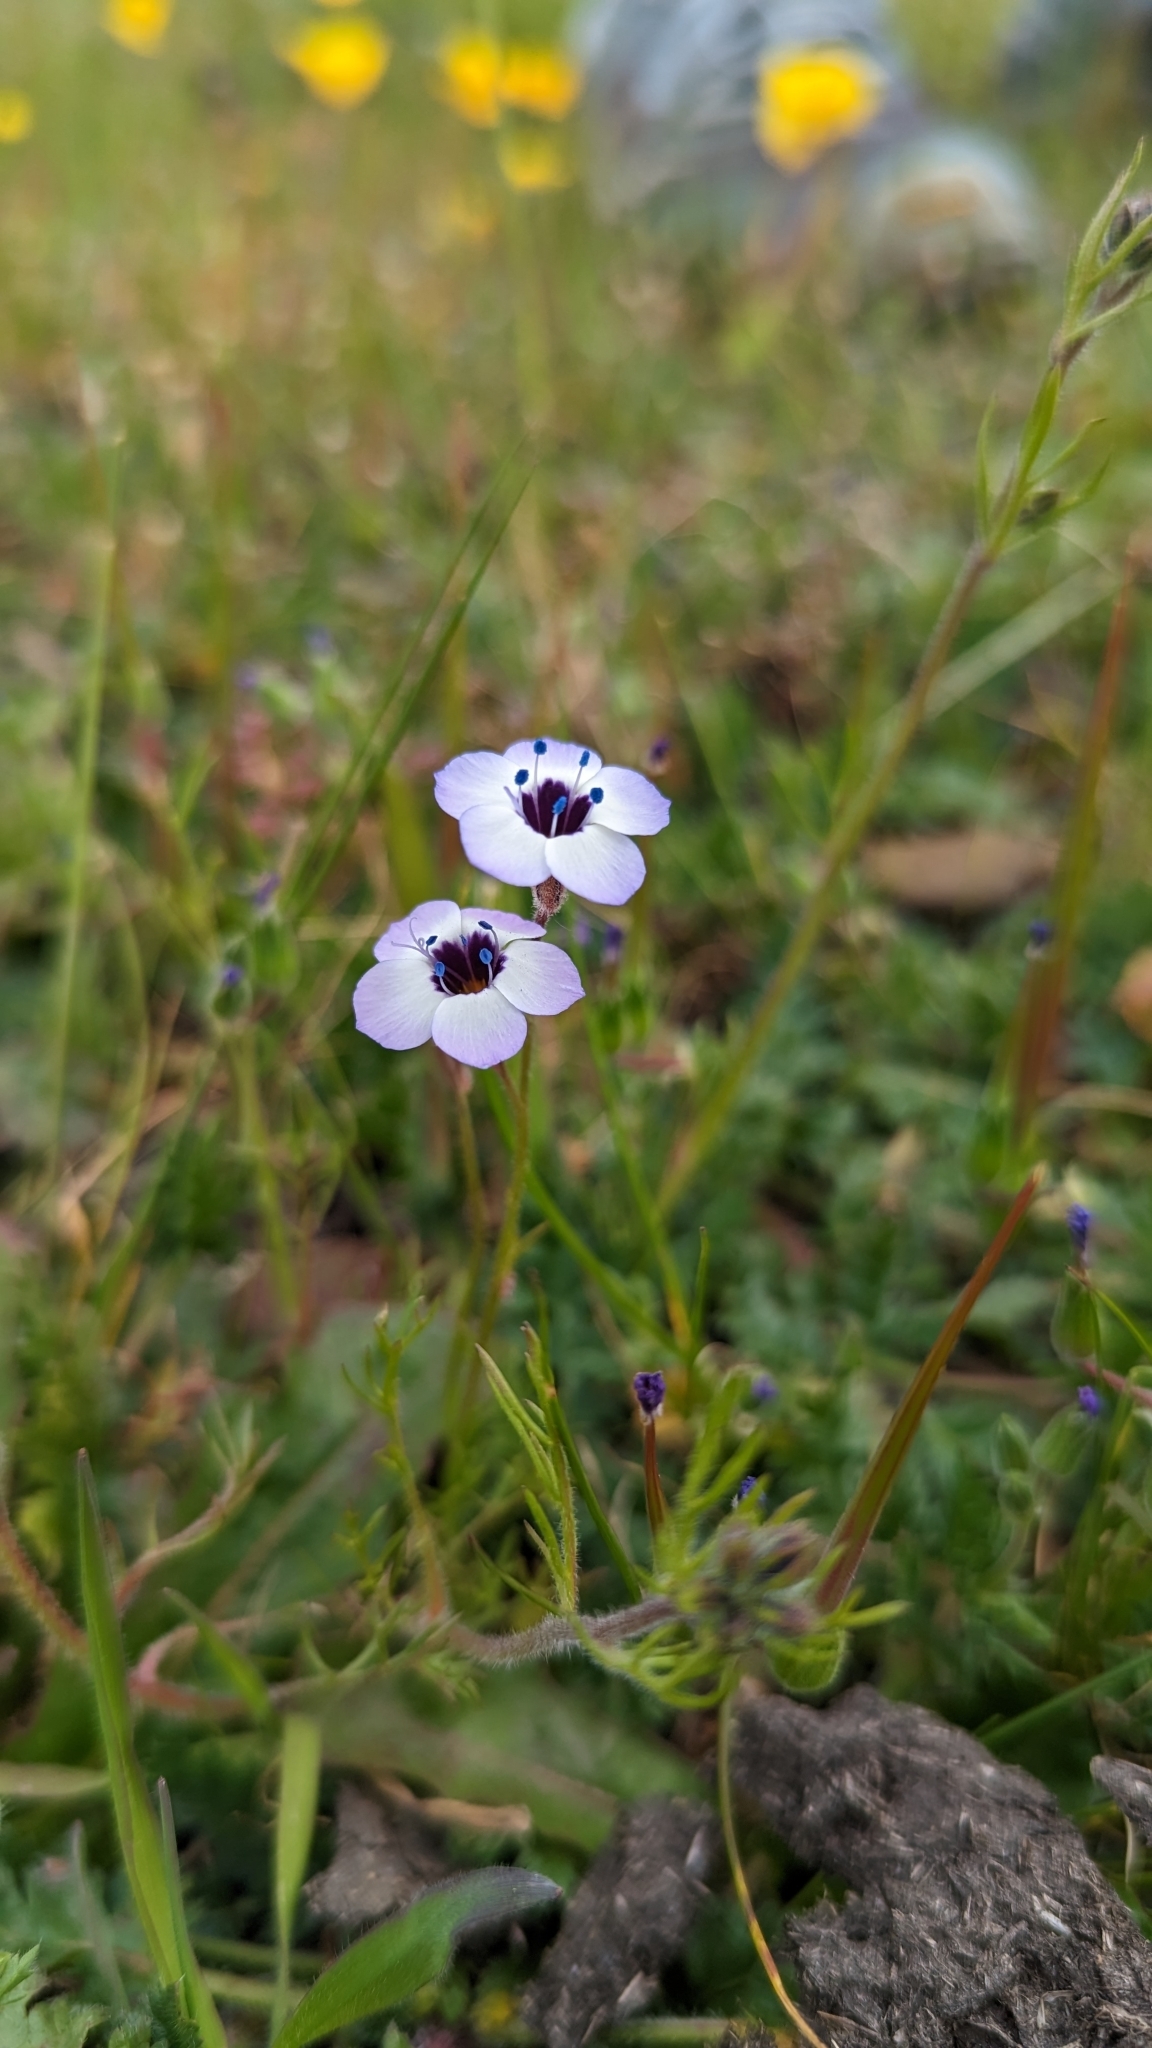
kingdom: Plantae
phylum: Tracheophyta
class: Magnoliopsida
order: Ericales
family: Polemoniaceae
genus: Gilia
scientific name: Gilia tricolor
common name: Bird's-eyes
